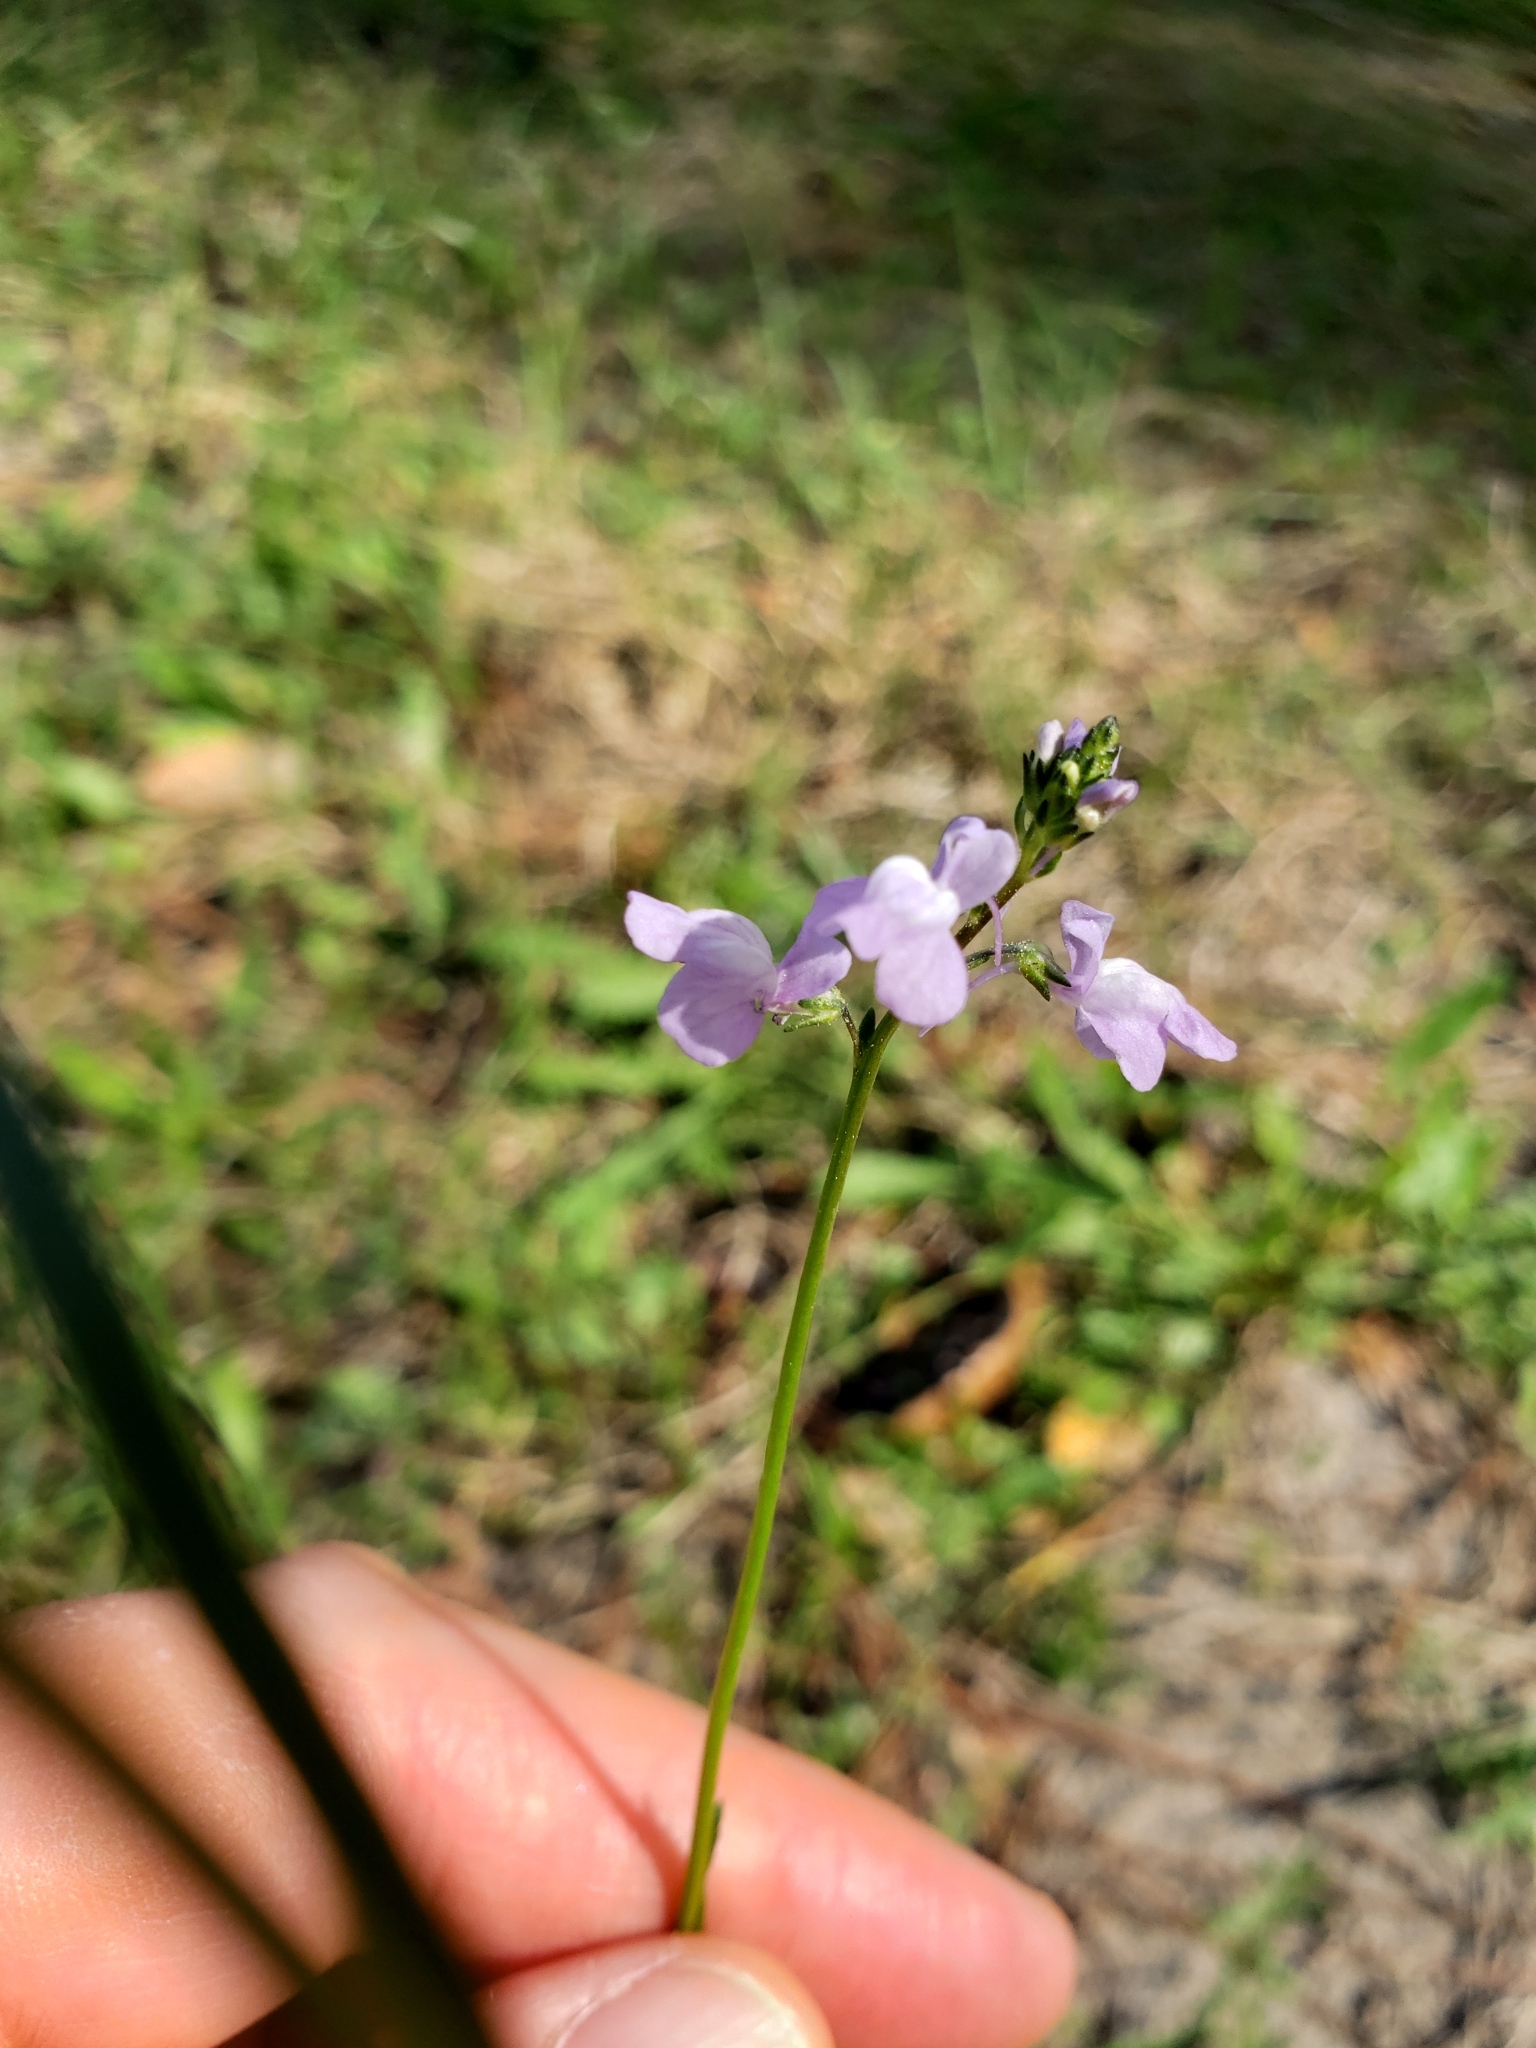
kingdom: Plantae
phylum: Tracheophyta
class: Magnoliopsida
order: Lamiales
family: Plantaginaceae
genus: Nuttallanthus
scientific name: Nuttallanthus canadensis
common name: Blue toadflax
